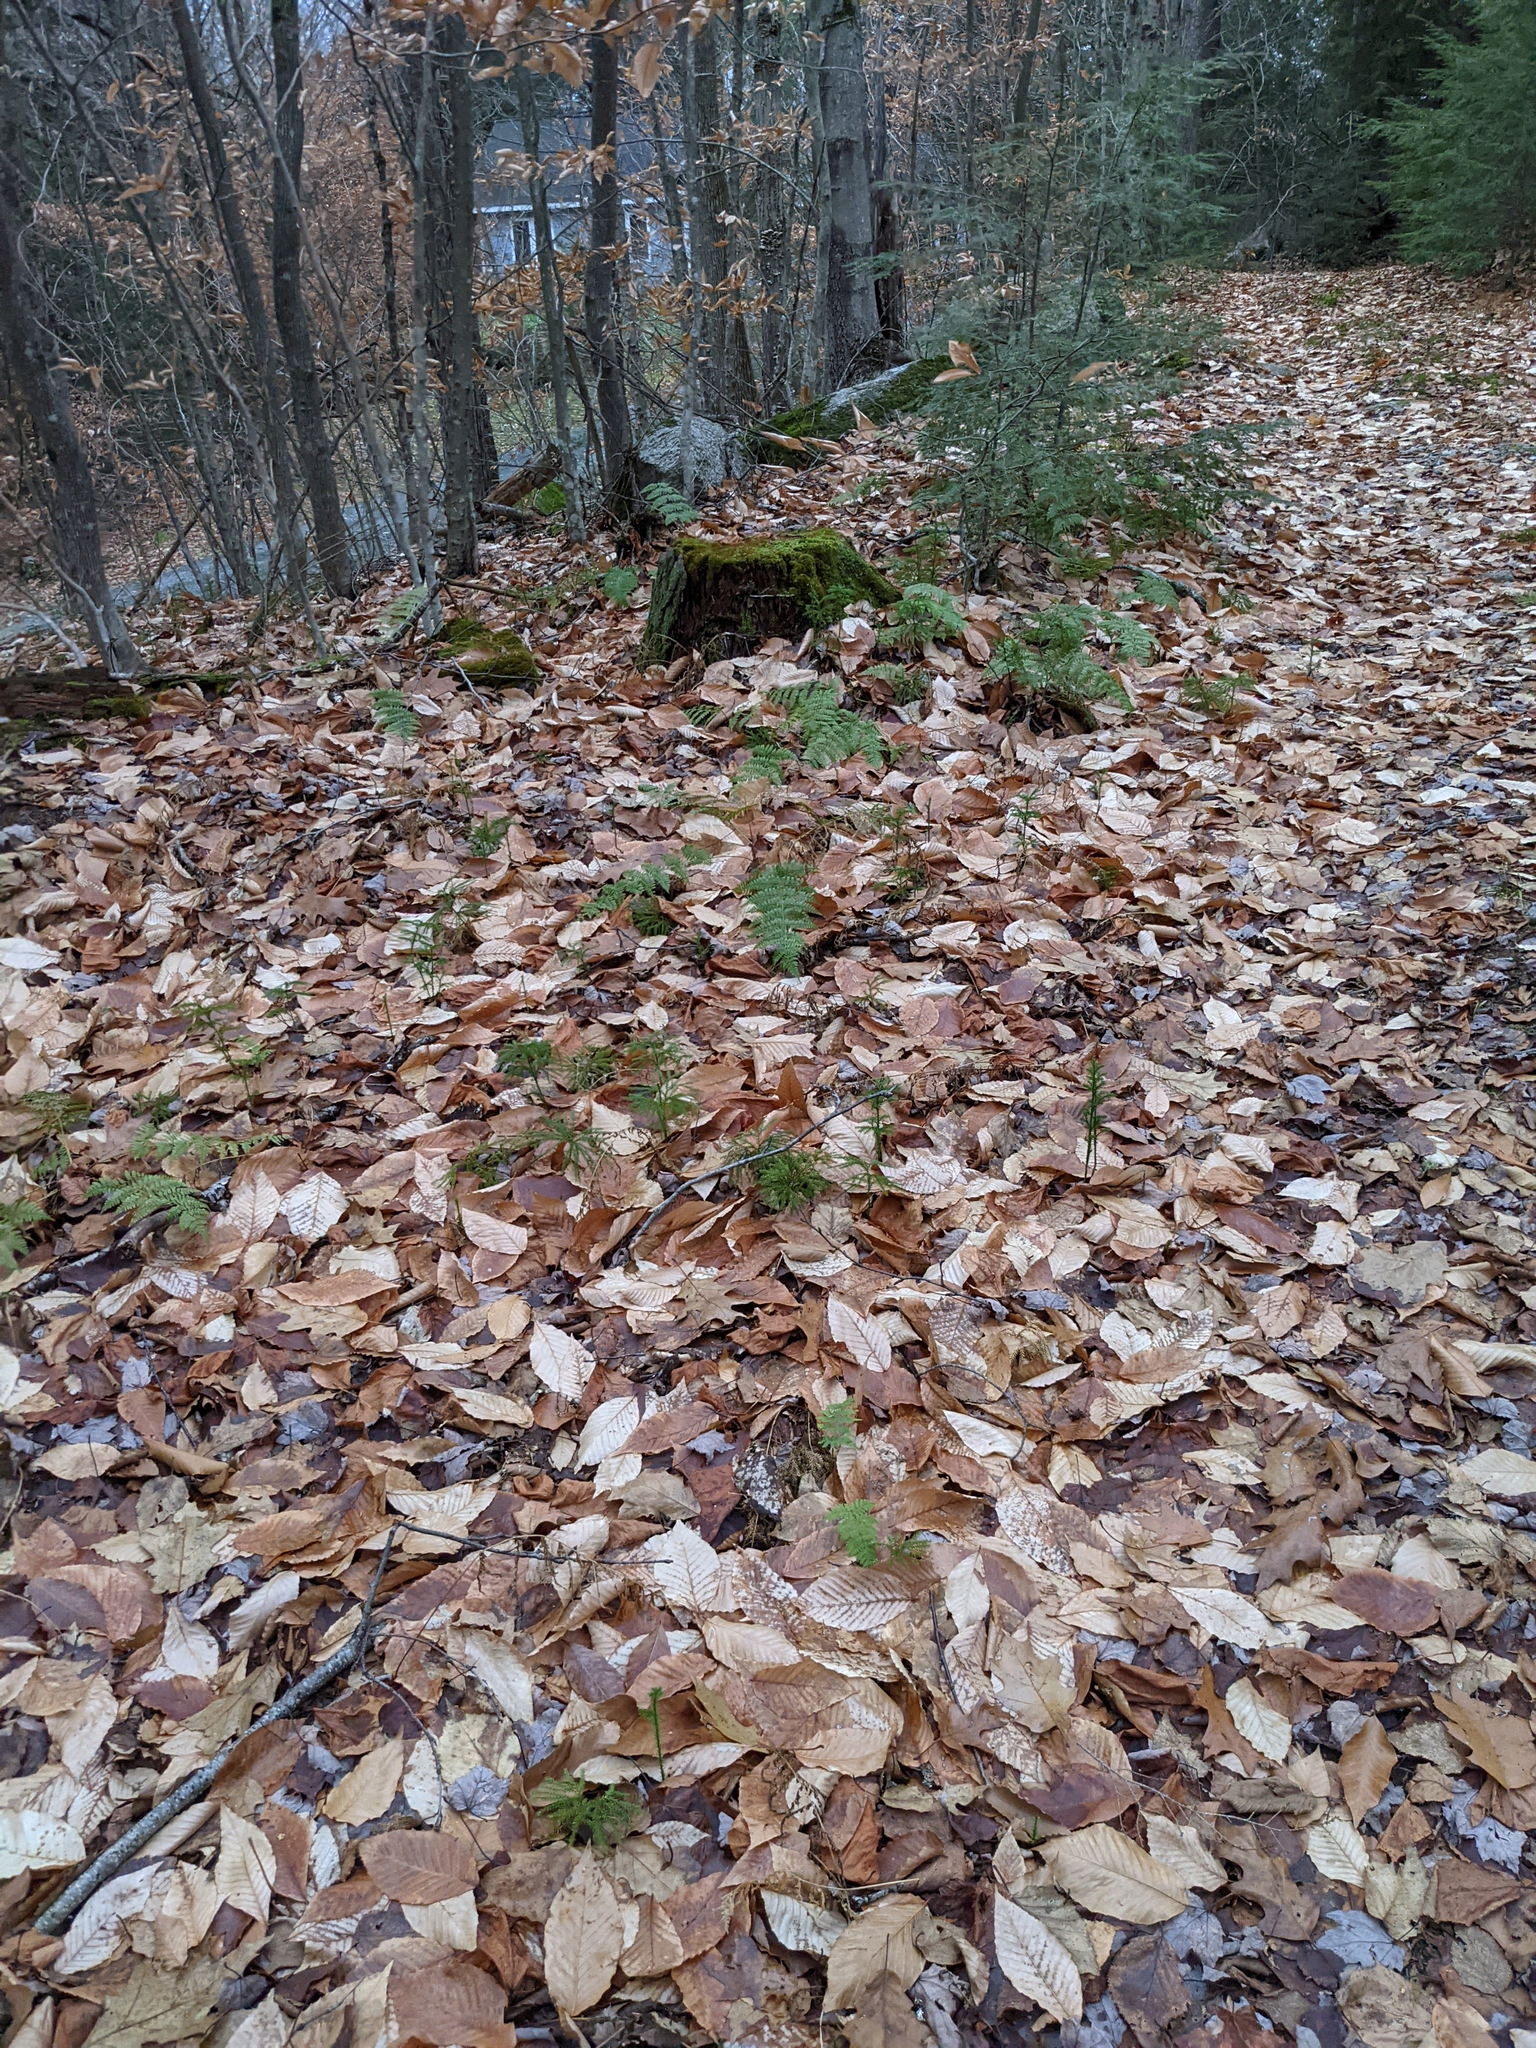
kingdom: Plantae
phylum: Tracheophyta
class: Magnoliopsida
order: Fagales
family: Fagaceae
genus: Fagus
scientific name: Fagus grandifolia
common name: American beech
